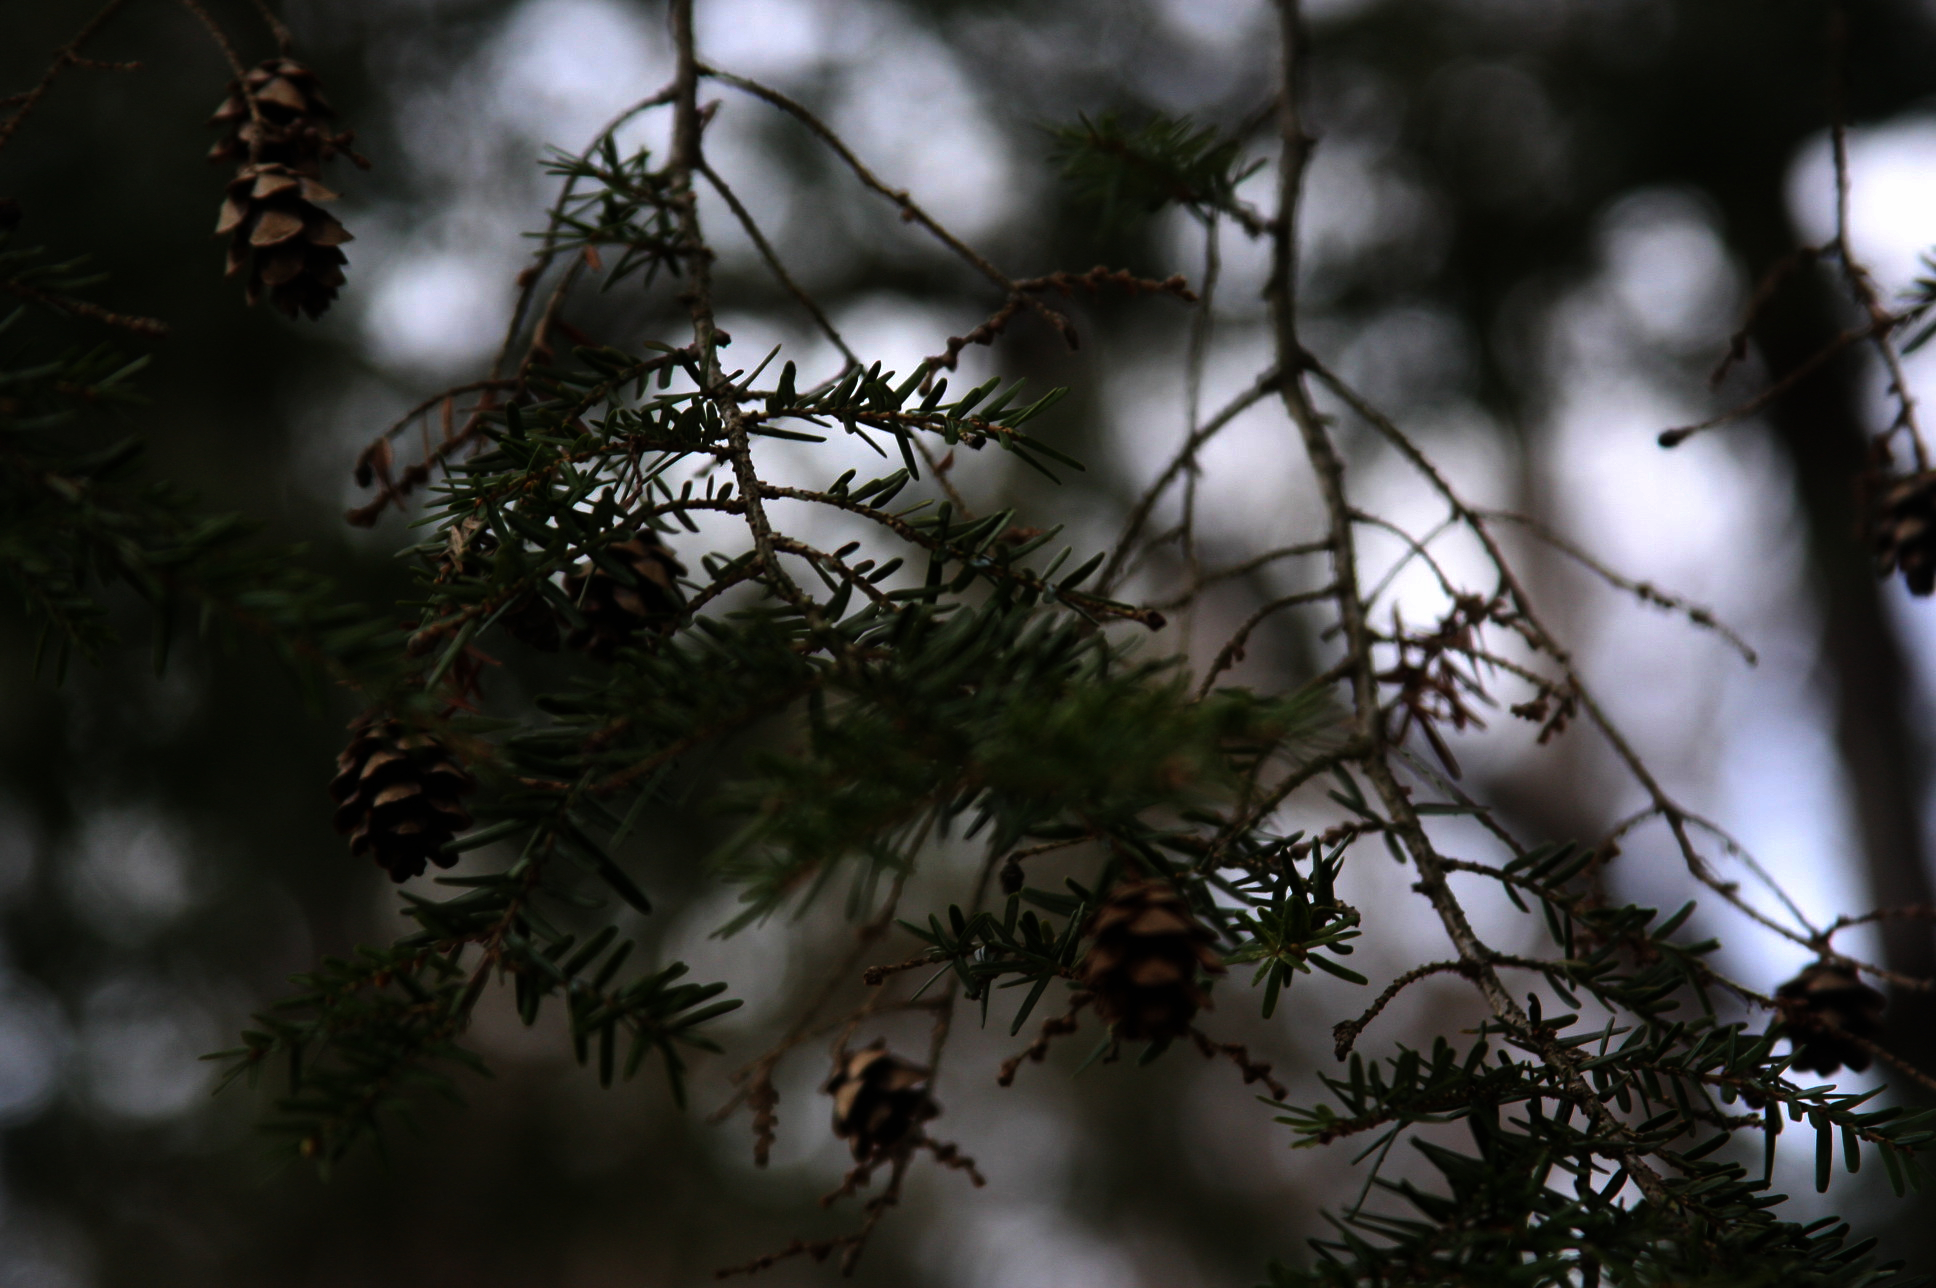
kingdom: Plantae
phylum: Tracheophyta
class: Pinopsida
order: Pinales
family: Pinaceae
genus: Tsuga
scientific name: Tsuga canadensis
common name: Eastern hemlock
